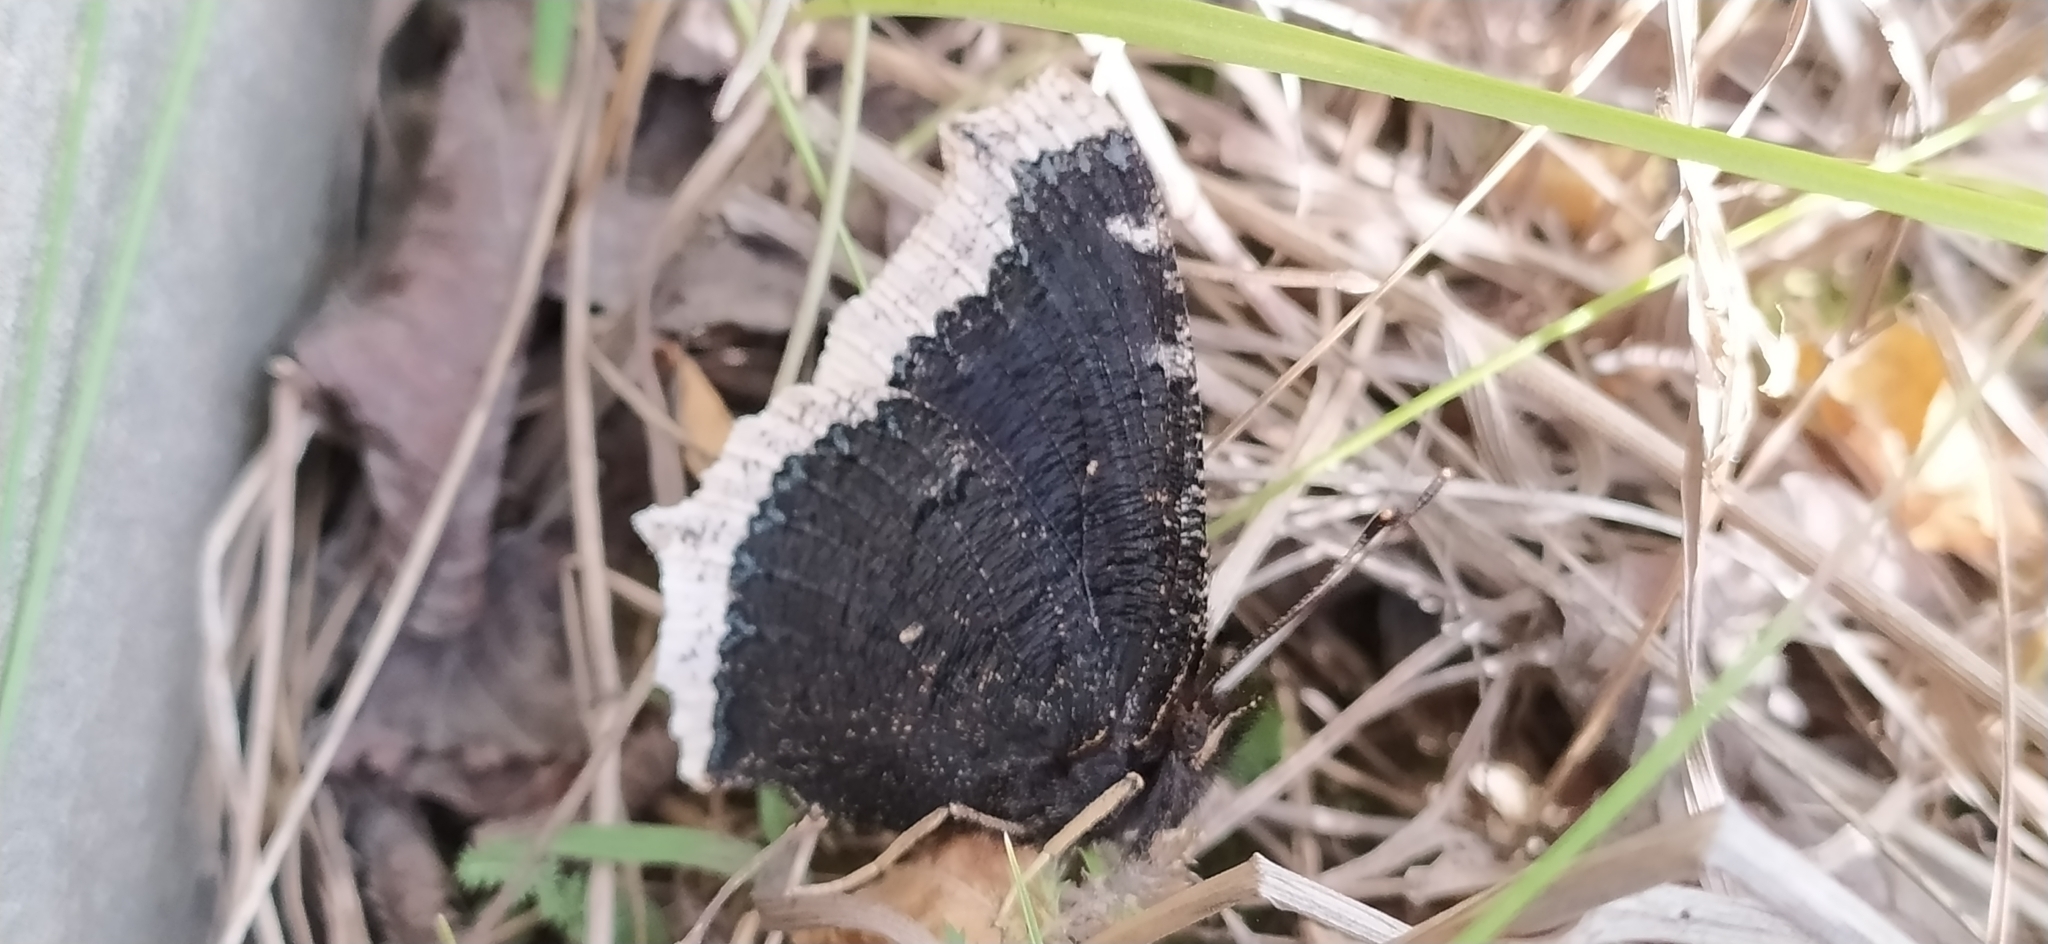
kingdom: Animalia
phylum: Arthropoda
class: Insecta
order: Lepidoptera
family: Nymphalidae
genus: Nymphalis
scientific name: Nymphalis antiopa
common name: Camberwell beauty
